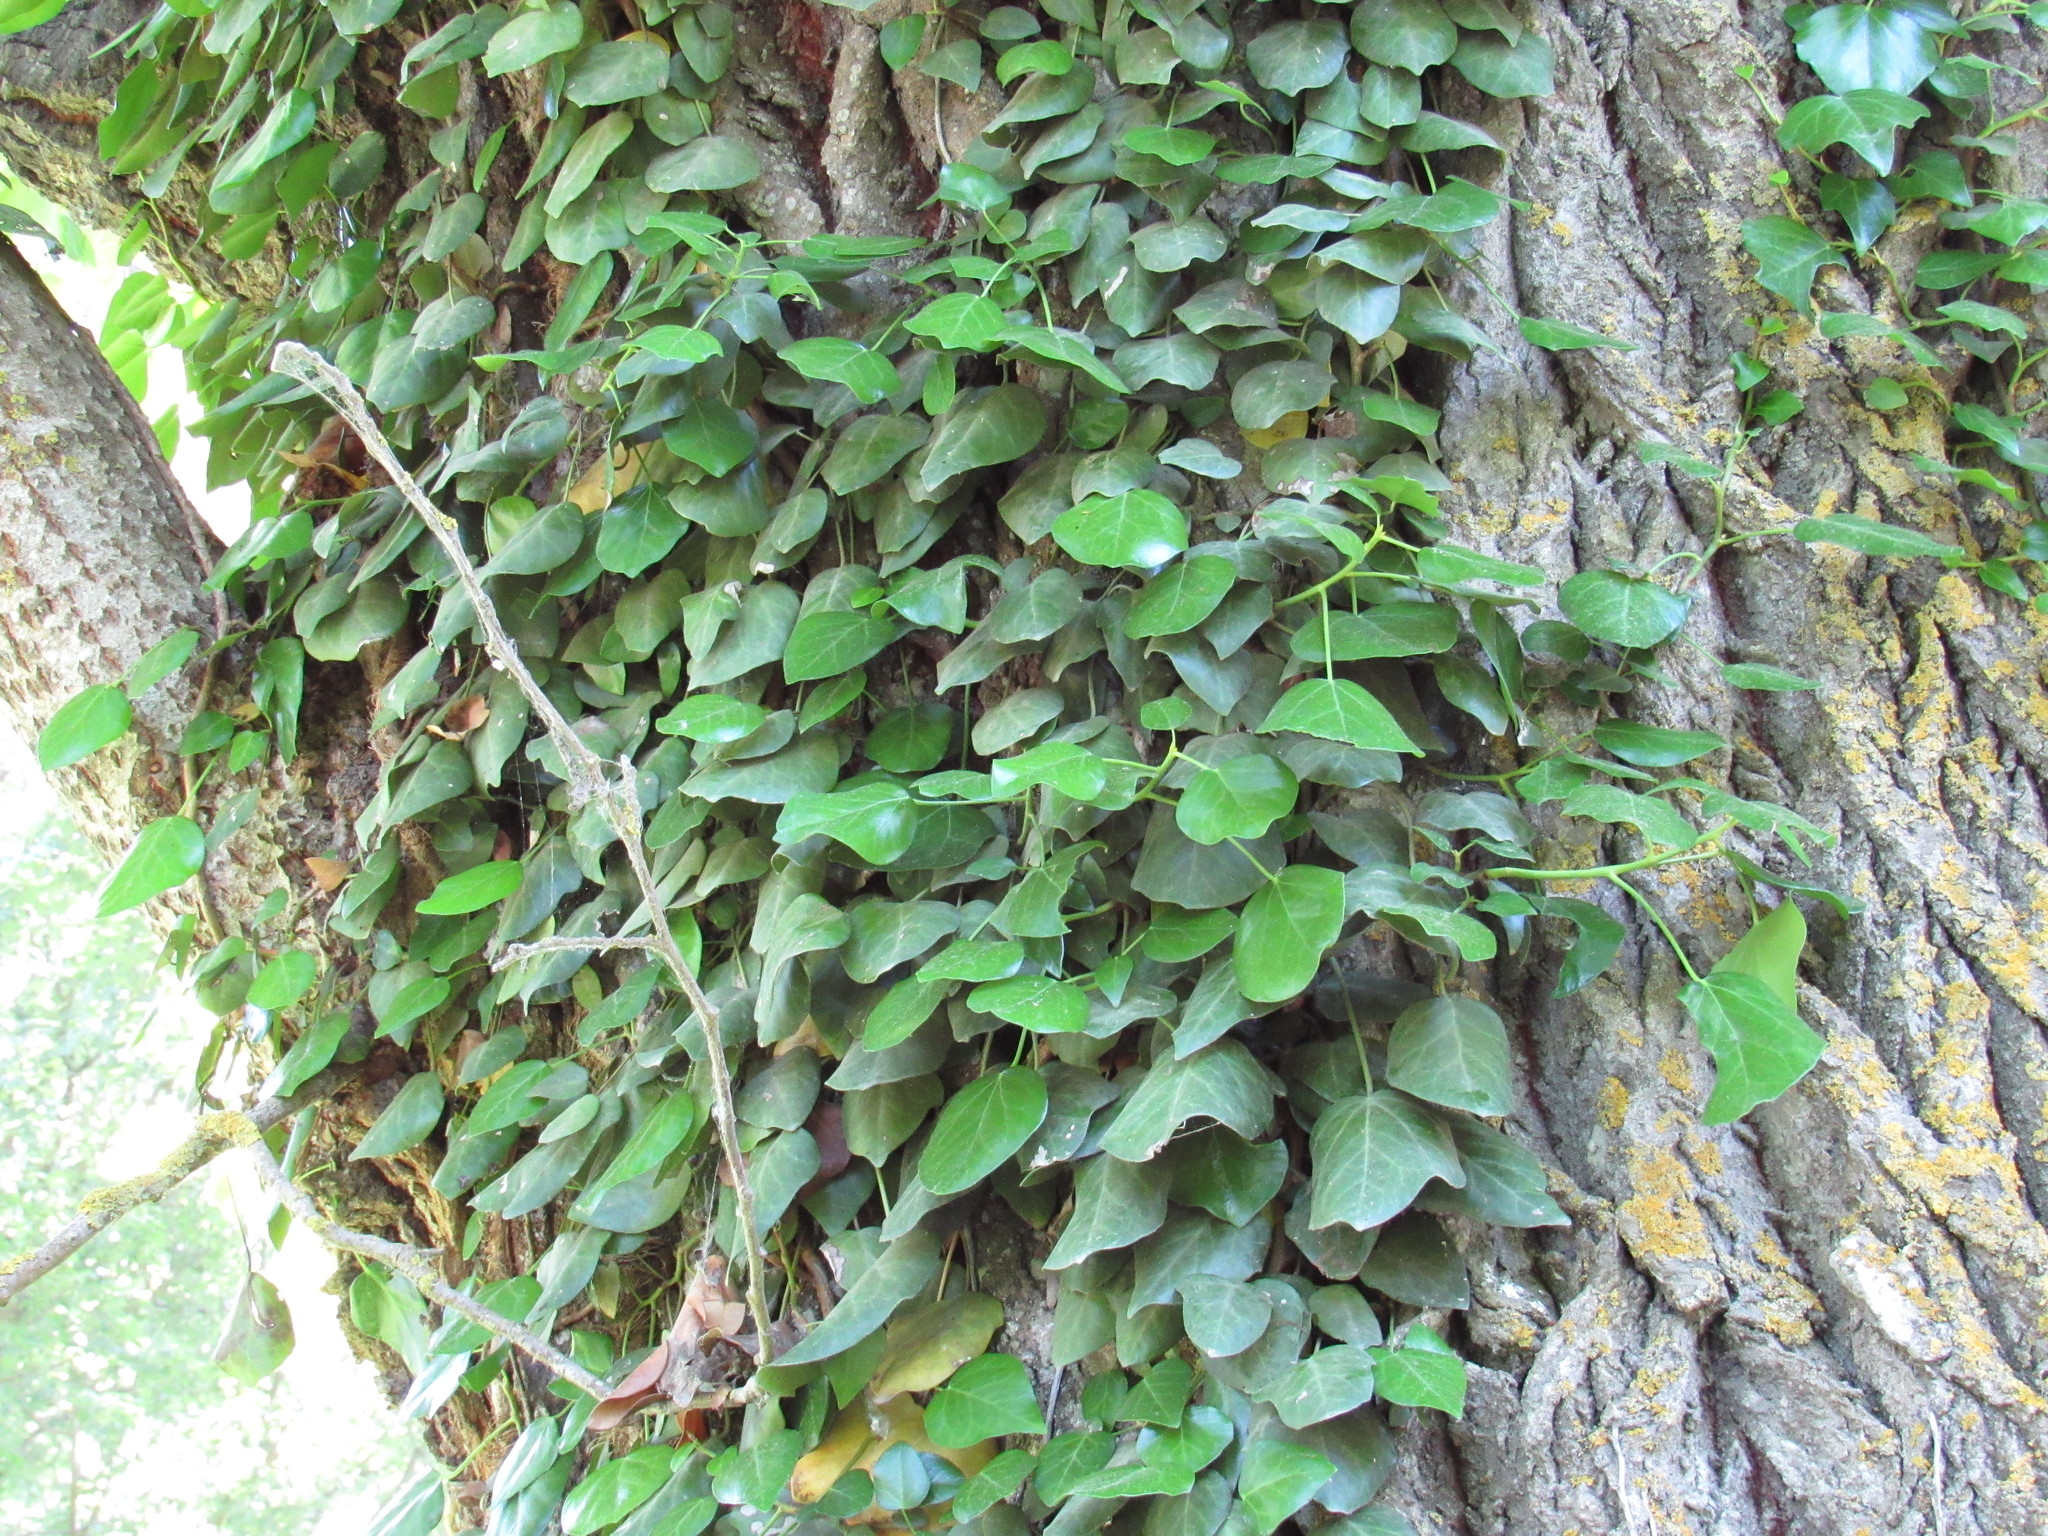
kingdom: Plantae
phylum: Tracheophyta
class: Magnoliopsida
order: Apiales
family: Araliaceae
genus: Hedera
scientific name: Hedera pastuchovii
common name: Persian ivy
